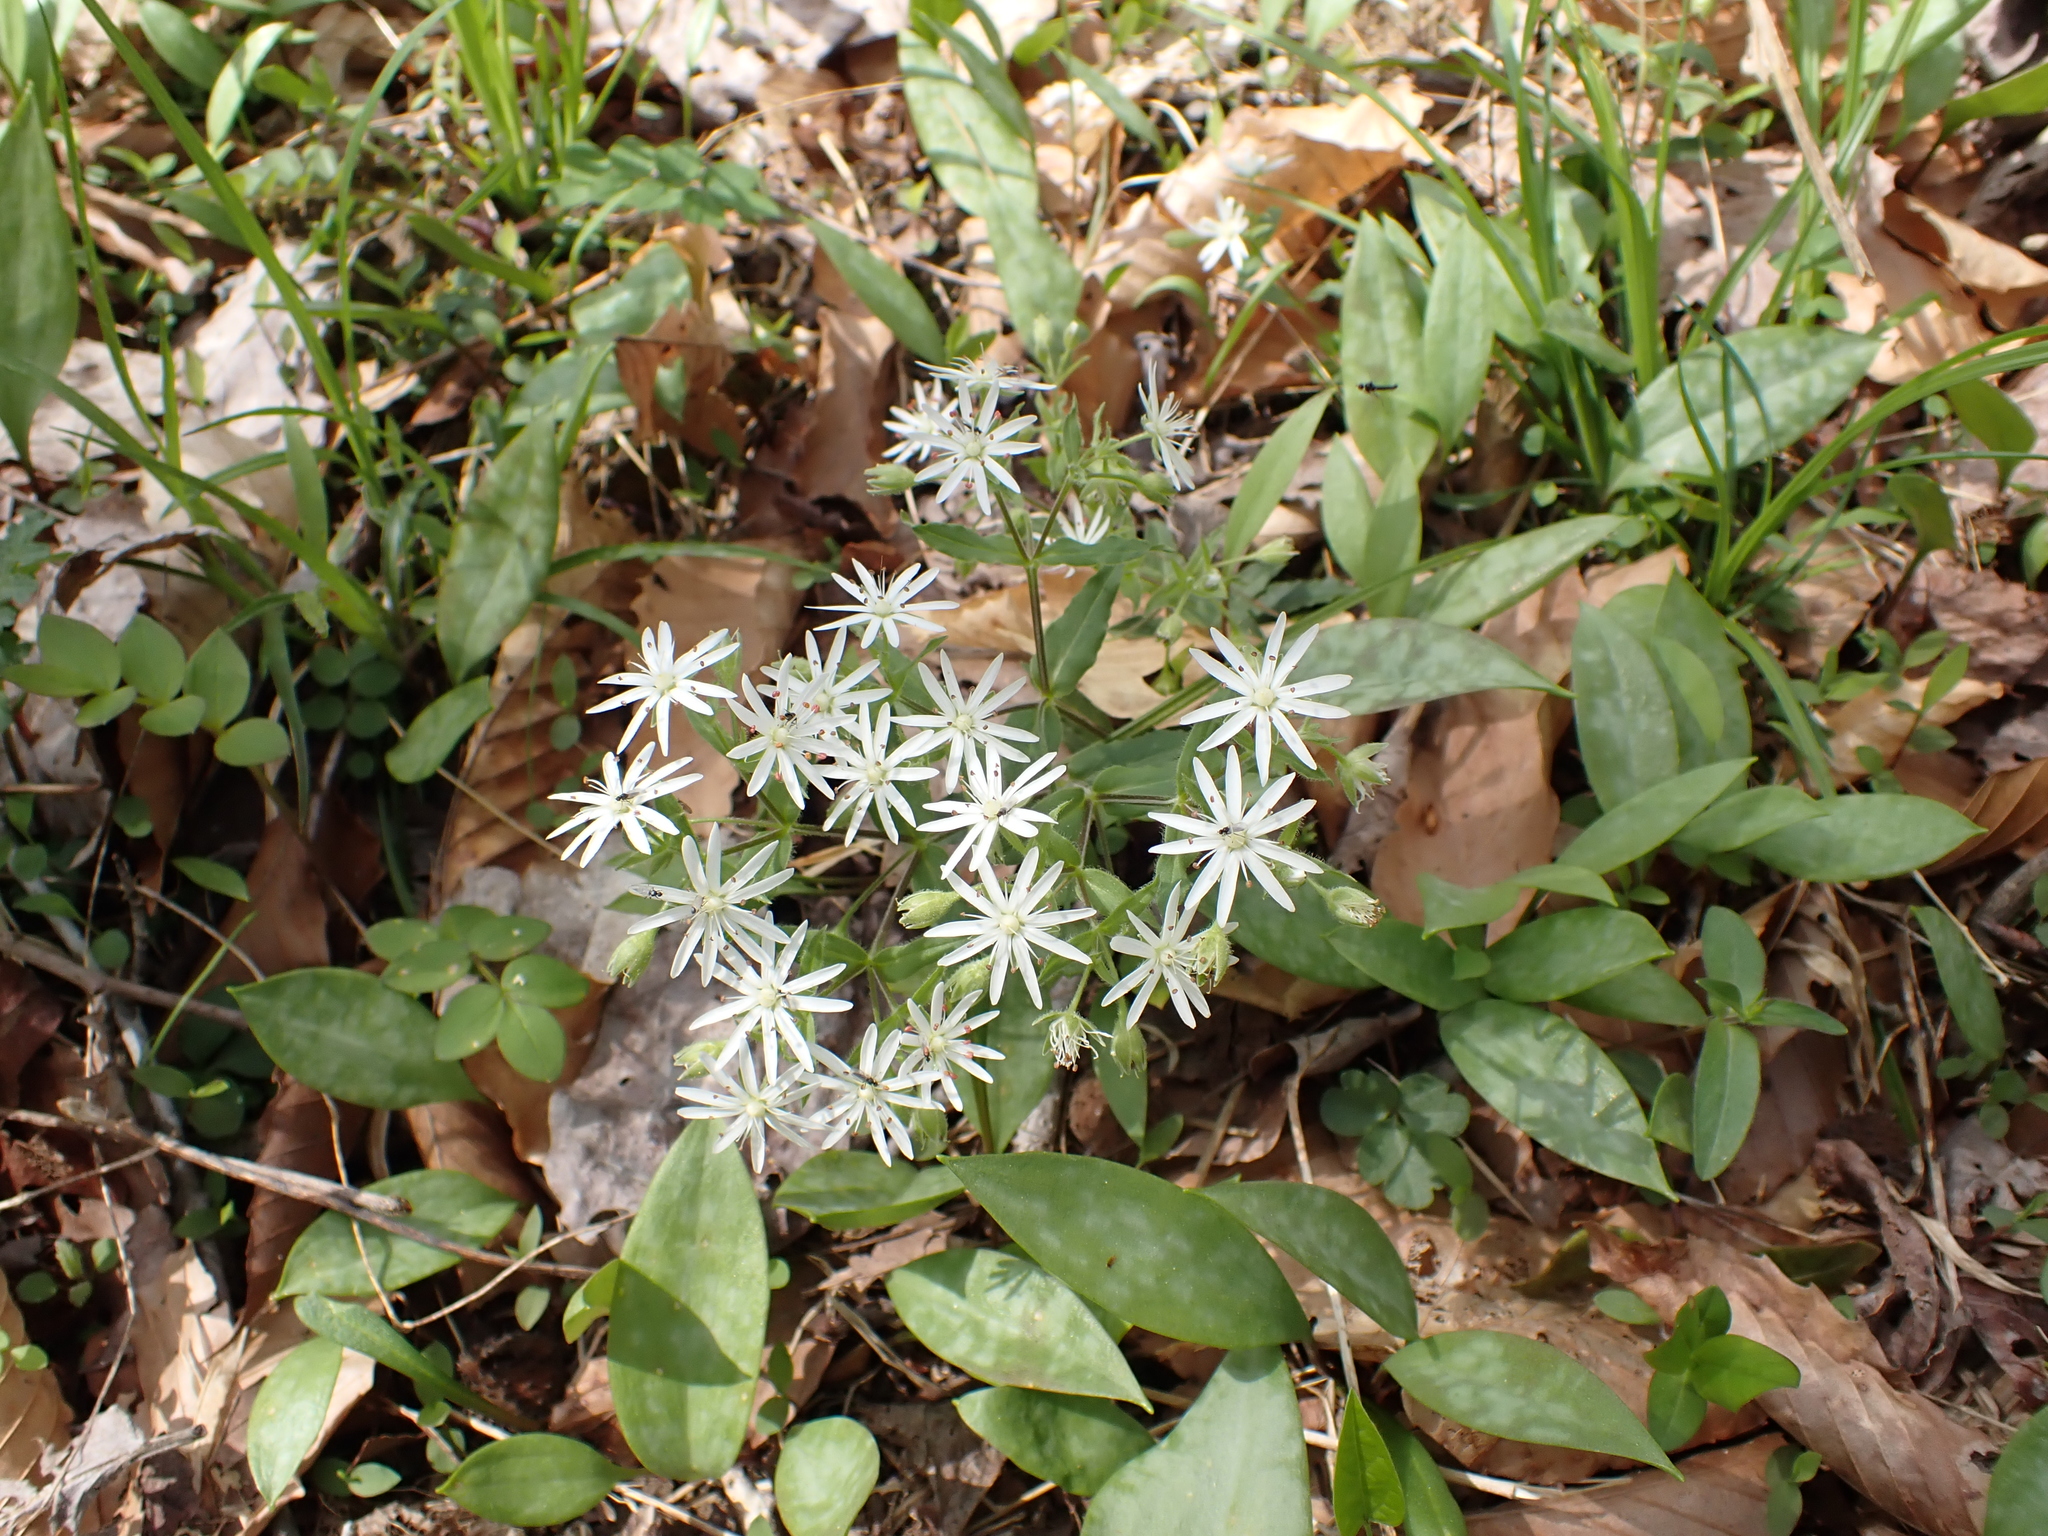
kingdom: Plantae
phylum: Tracheophyta
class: Magnoliopsida
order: Caryophyllales
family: Caryophyllaceae
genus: Stellaria
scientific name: Stellaria pubera
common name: Star chickweed
